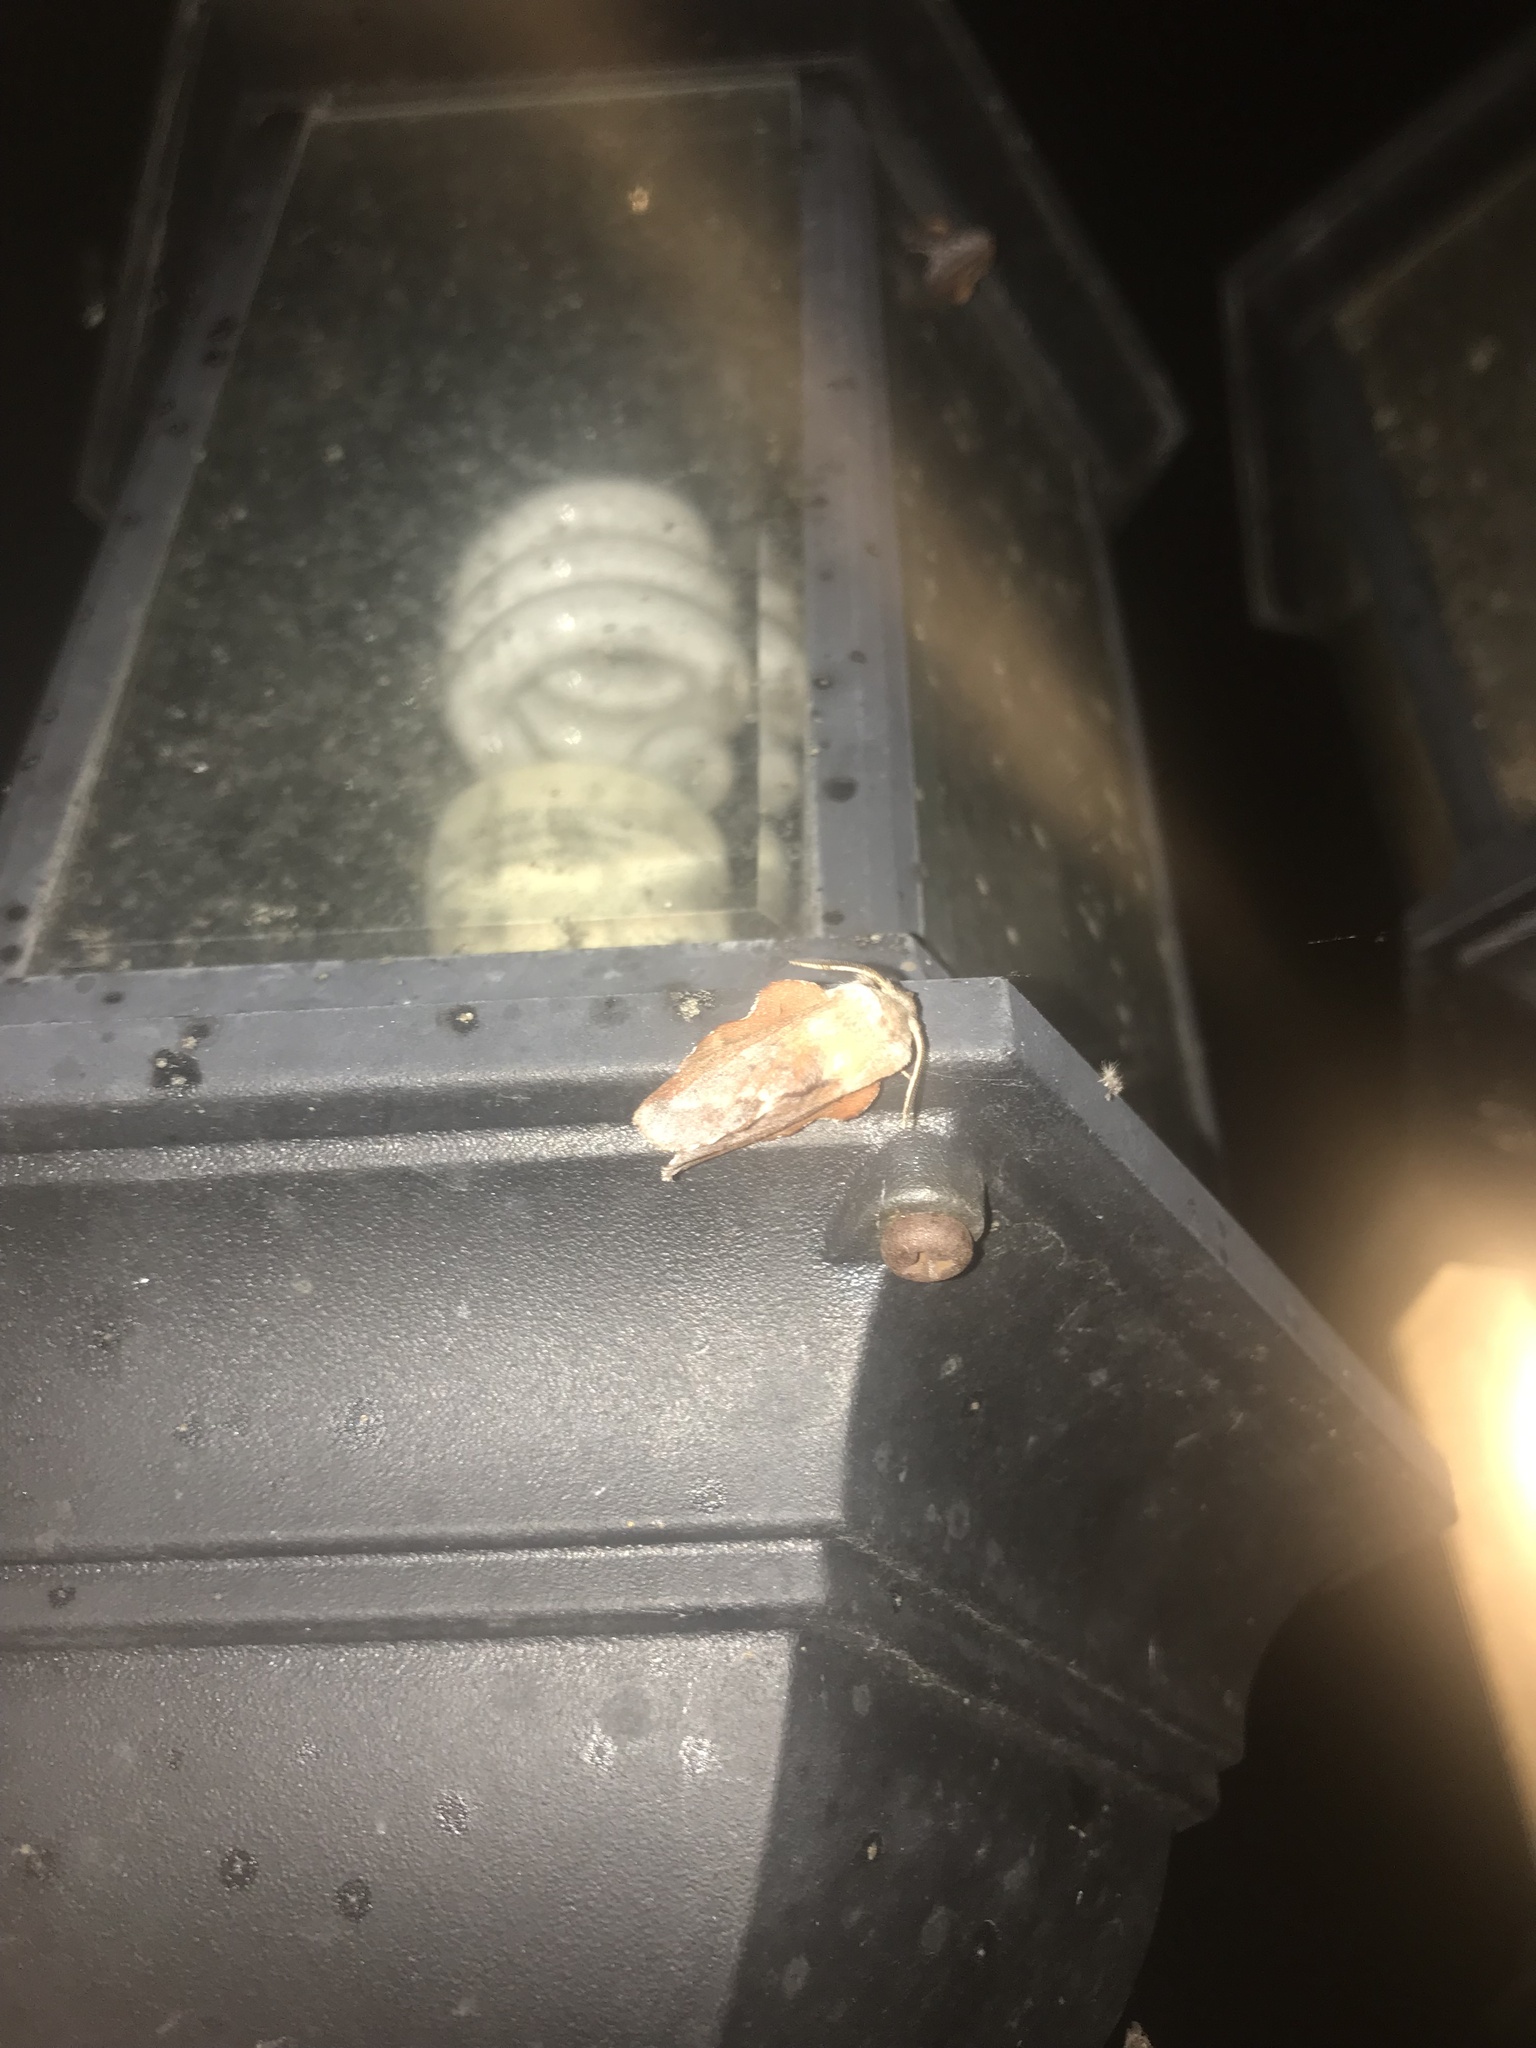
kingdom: Animalia
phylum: Arthropoda
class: Insecta
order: Lepidoptera
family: Lasiocampidae
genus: Phyllodesma
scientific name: Phyllodesma americana
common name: American lappet moth
